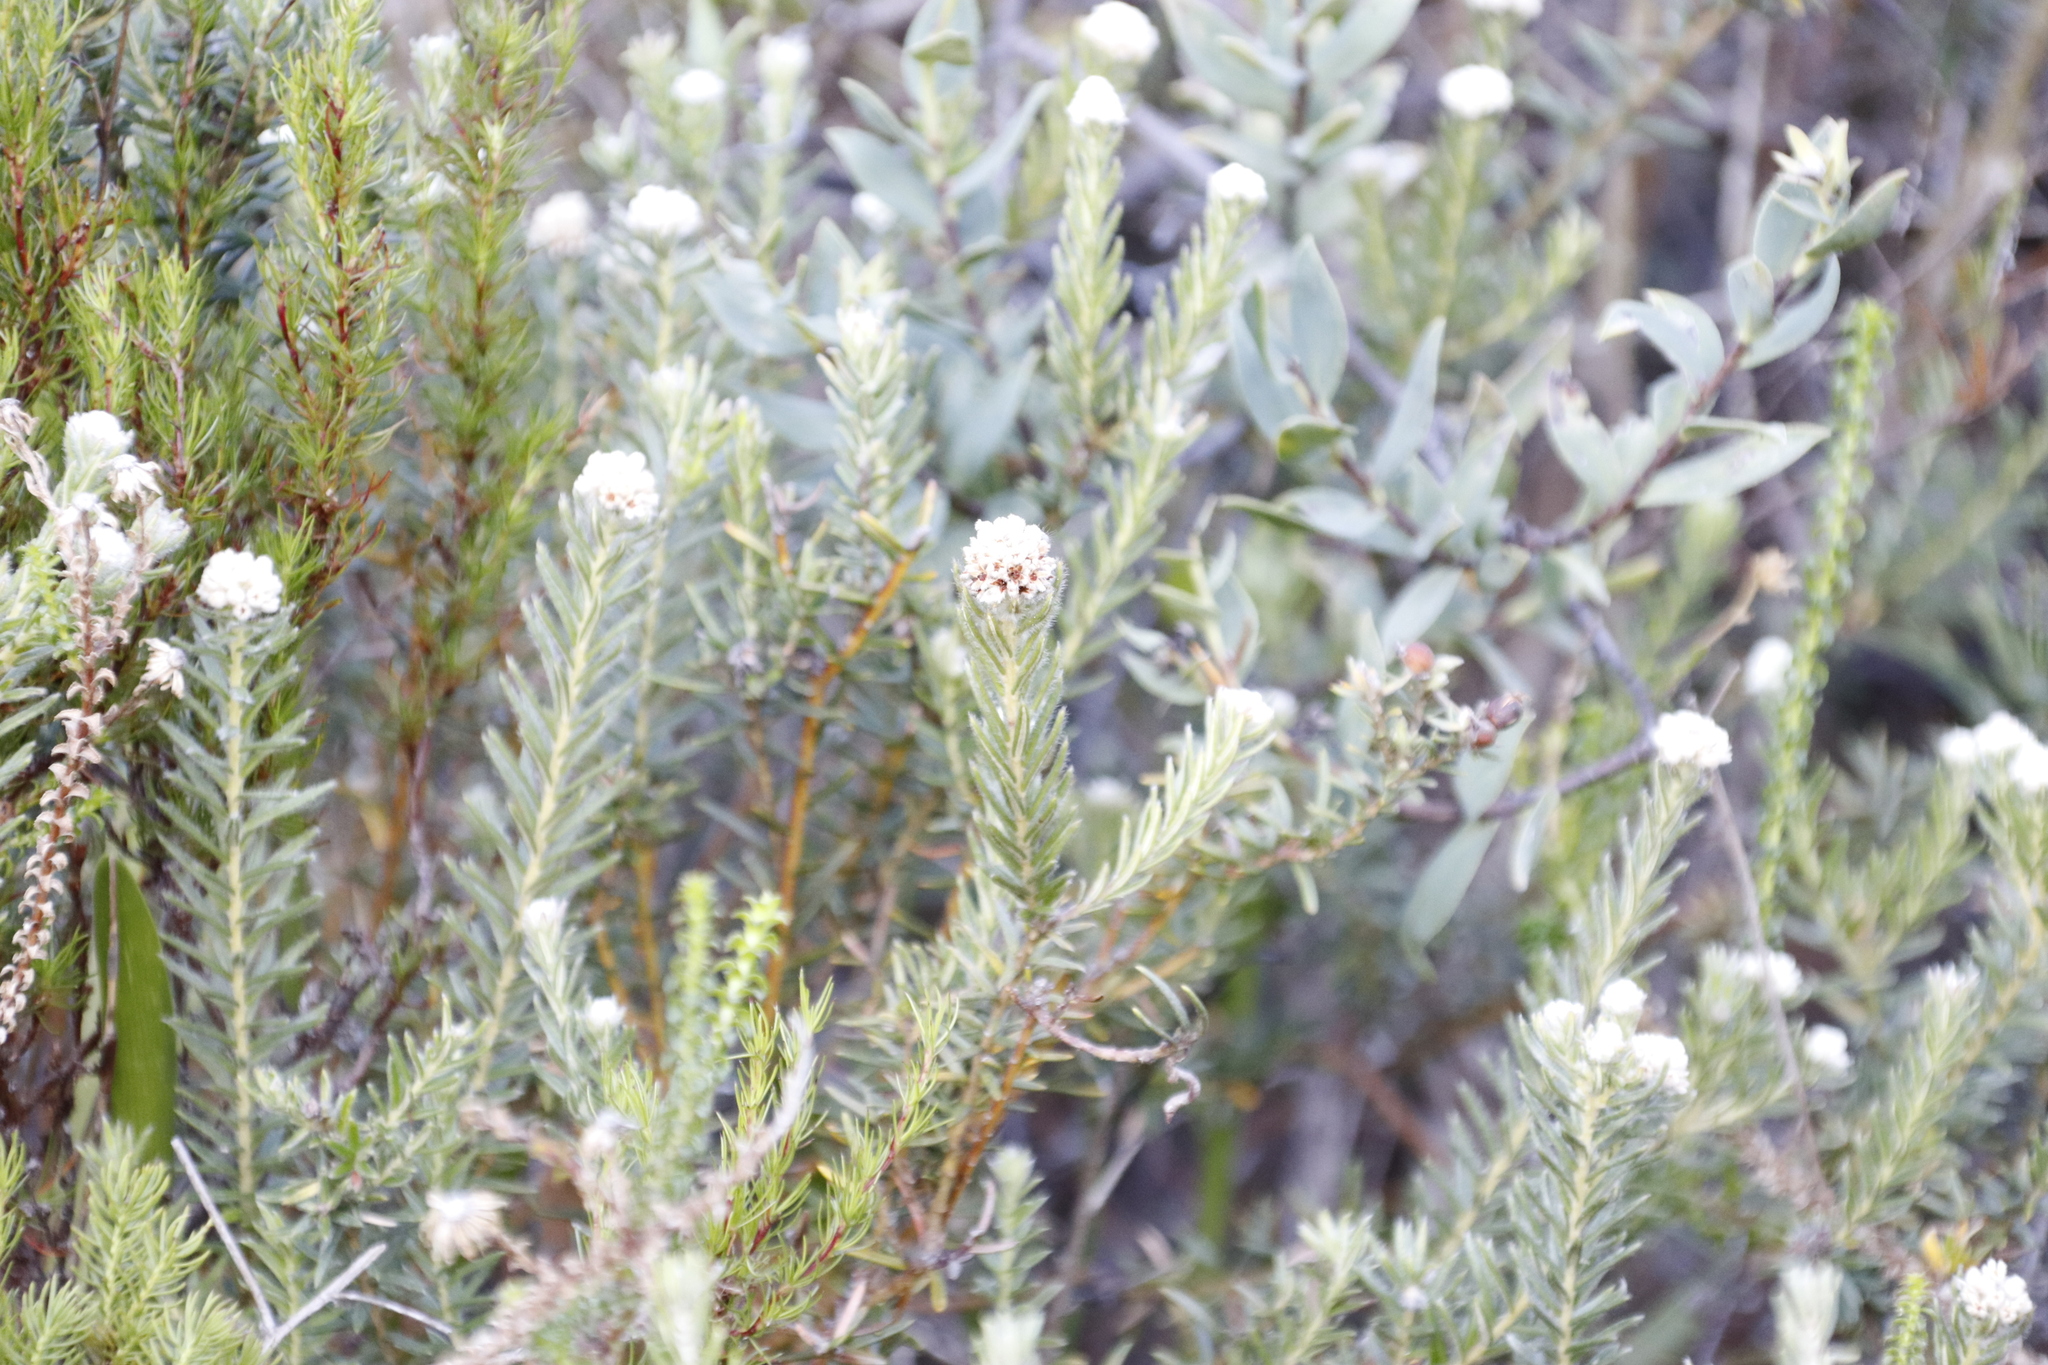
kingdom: Plantae
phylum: Tracheophyta
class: Magnoliopsida
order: Rosales
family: Rhamnaceae
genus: Phylica
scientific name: Phylica strigosa
